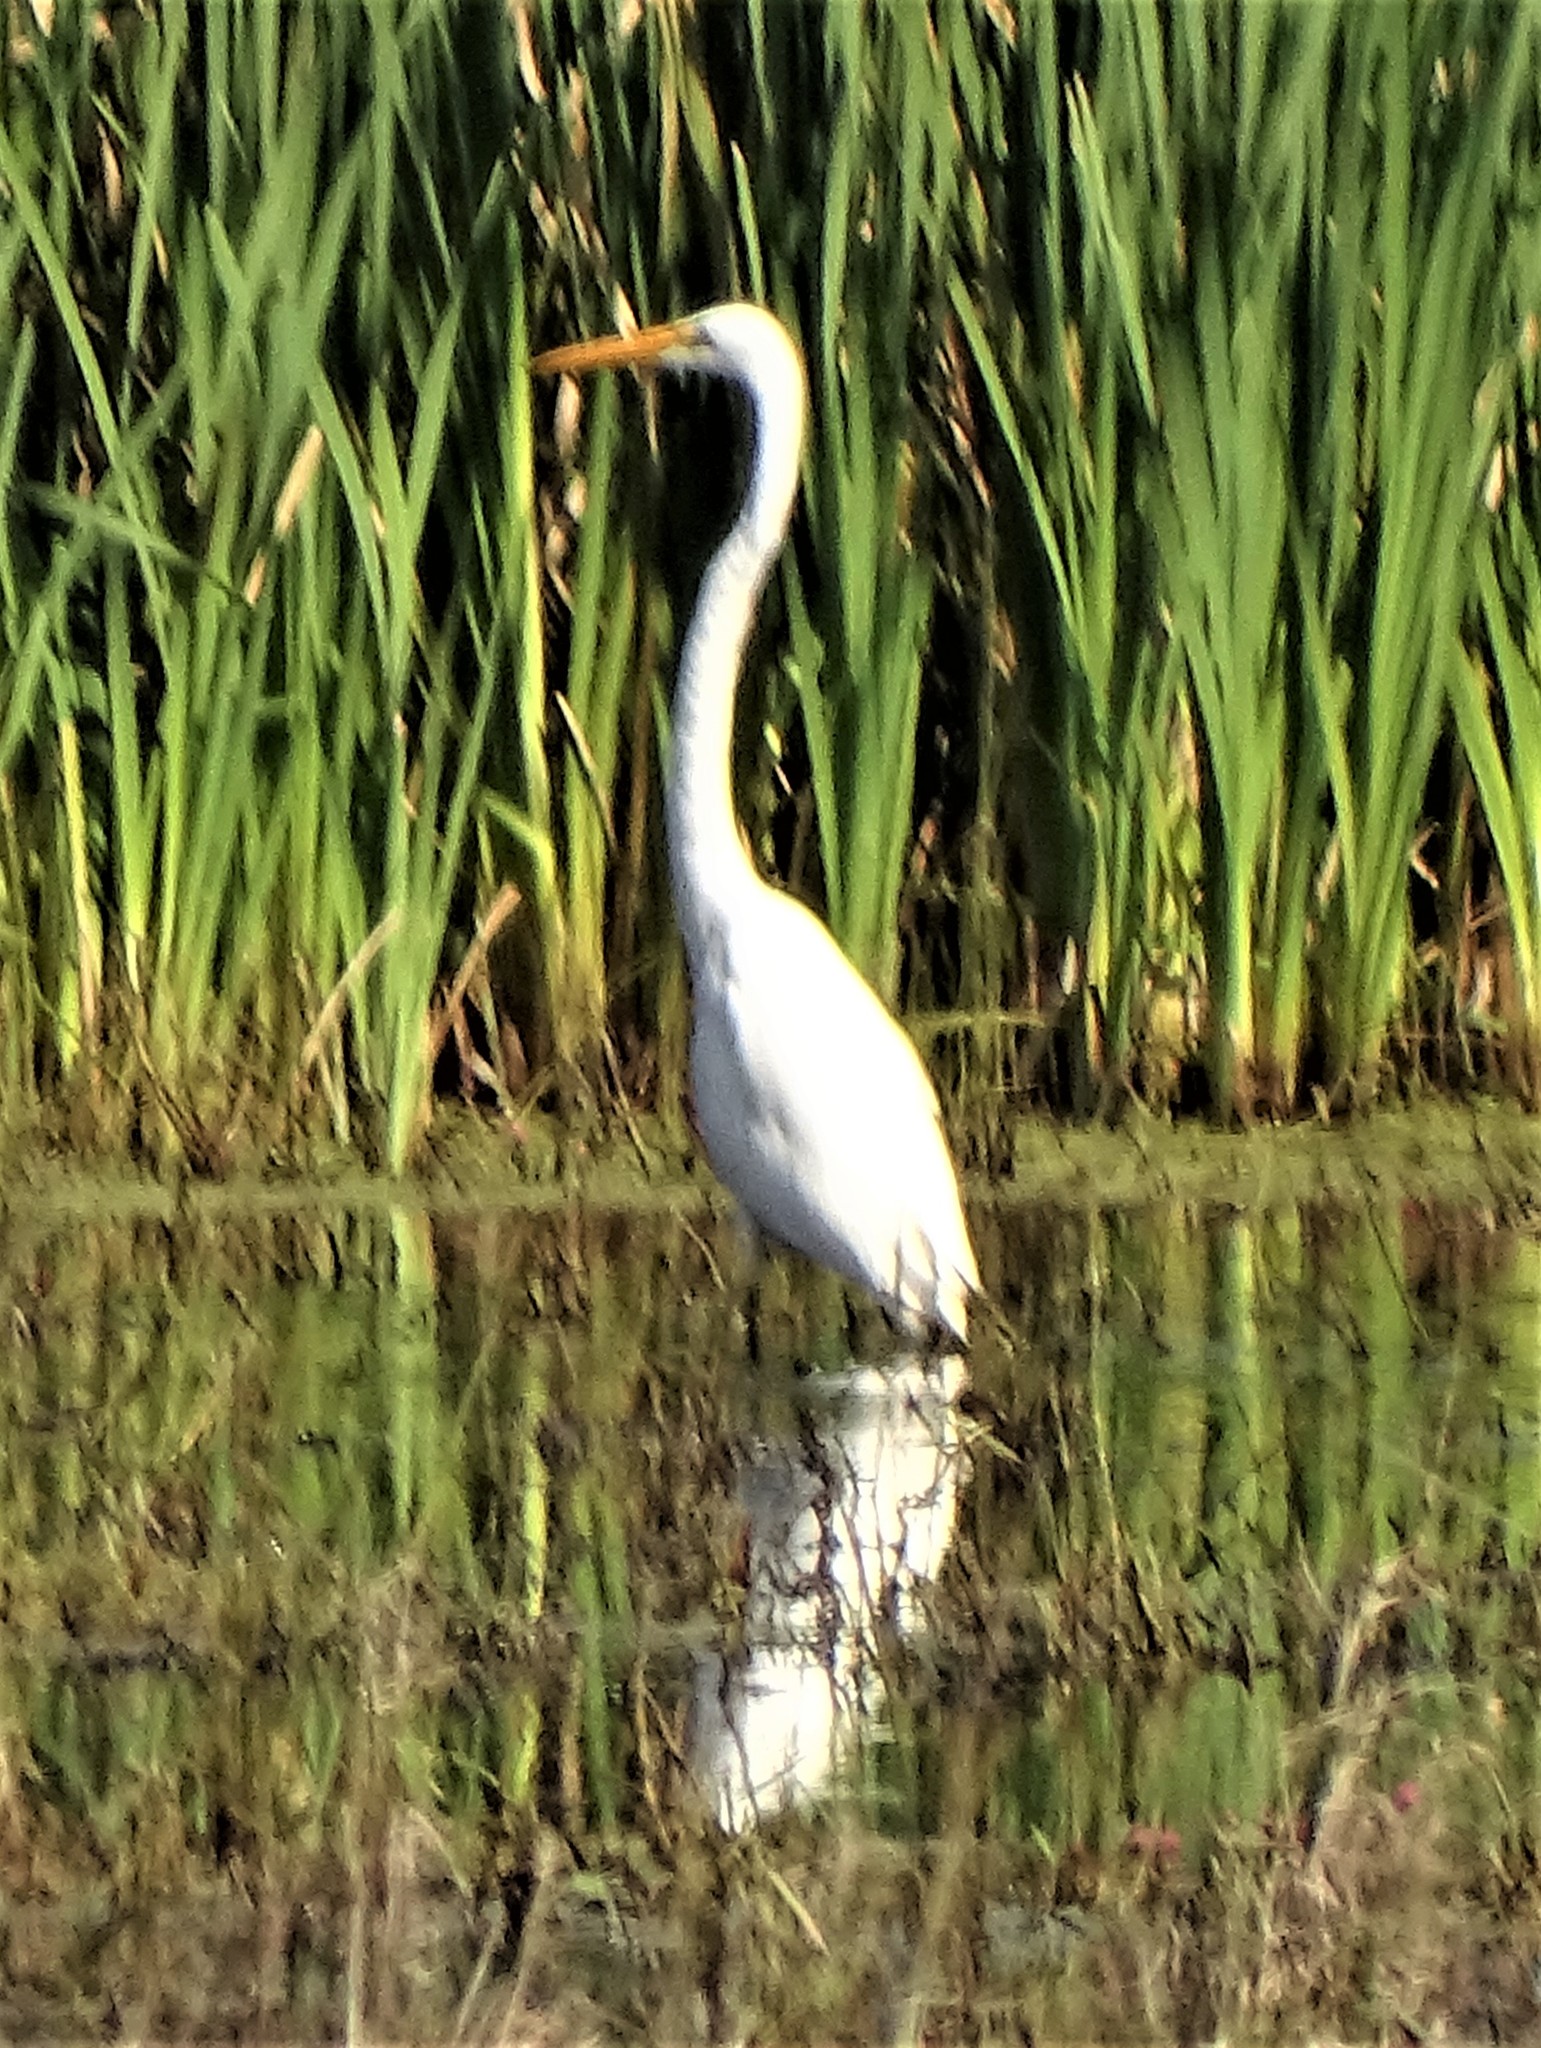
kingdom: Animalia
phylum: Chordata
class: Aves
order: Pelecaniformes
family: Ardeidae
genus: Ardea
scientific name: Ardea alba
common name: Great egret
